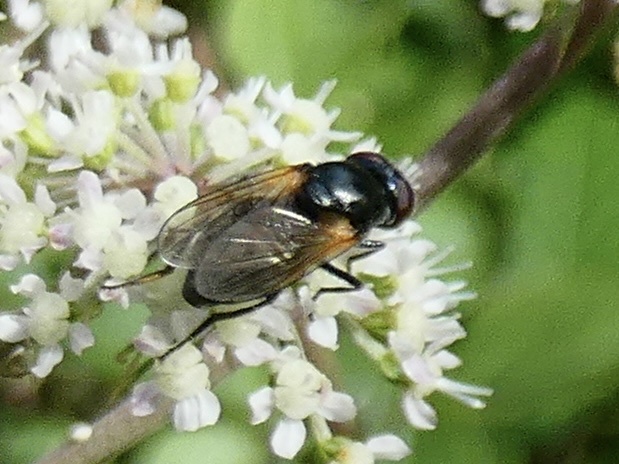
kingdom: Animalia
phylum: Arthropoda
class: Insecta
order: Diptera
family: Syrphidae
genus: Cheilosia
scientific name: Cheilosia impressa
